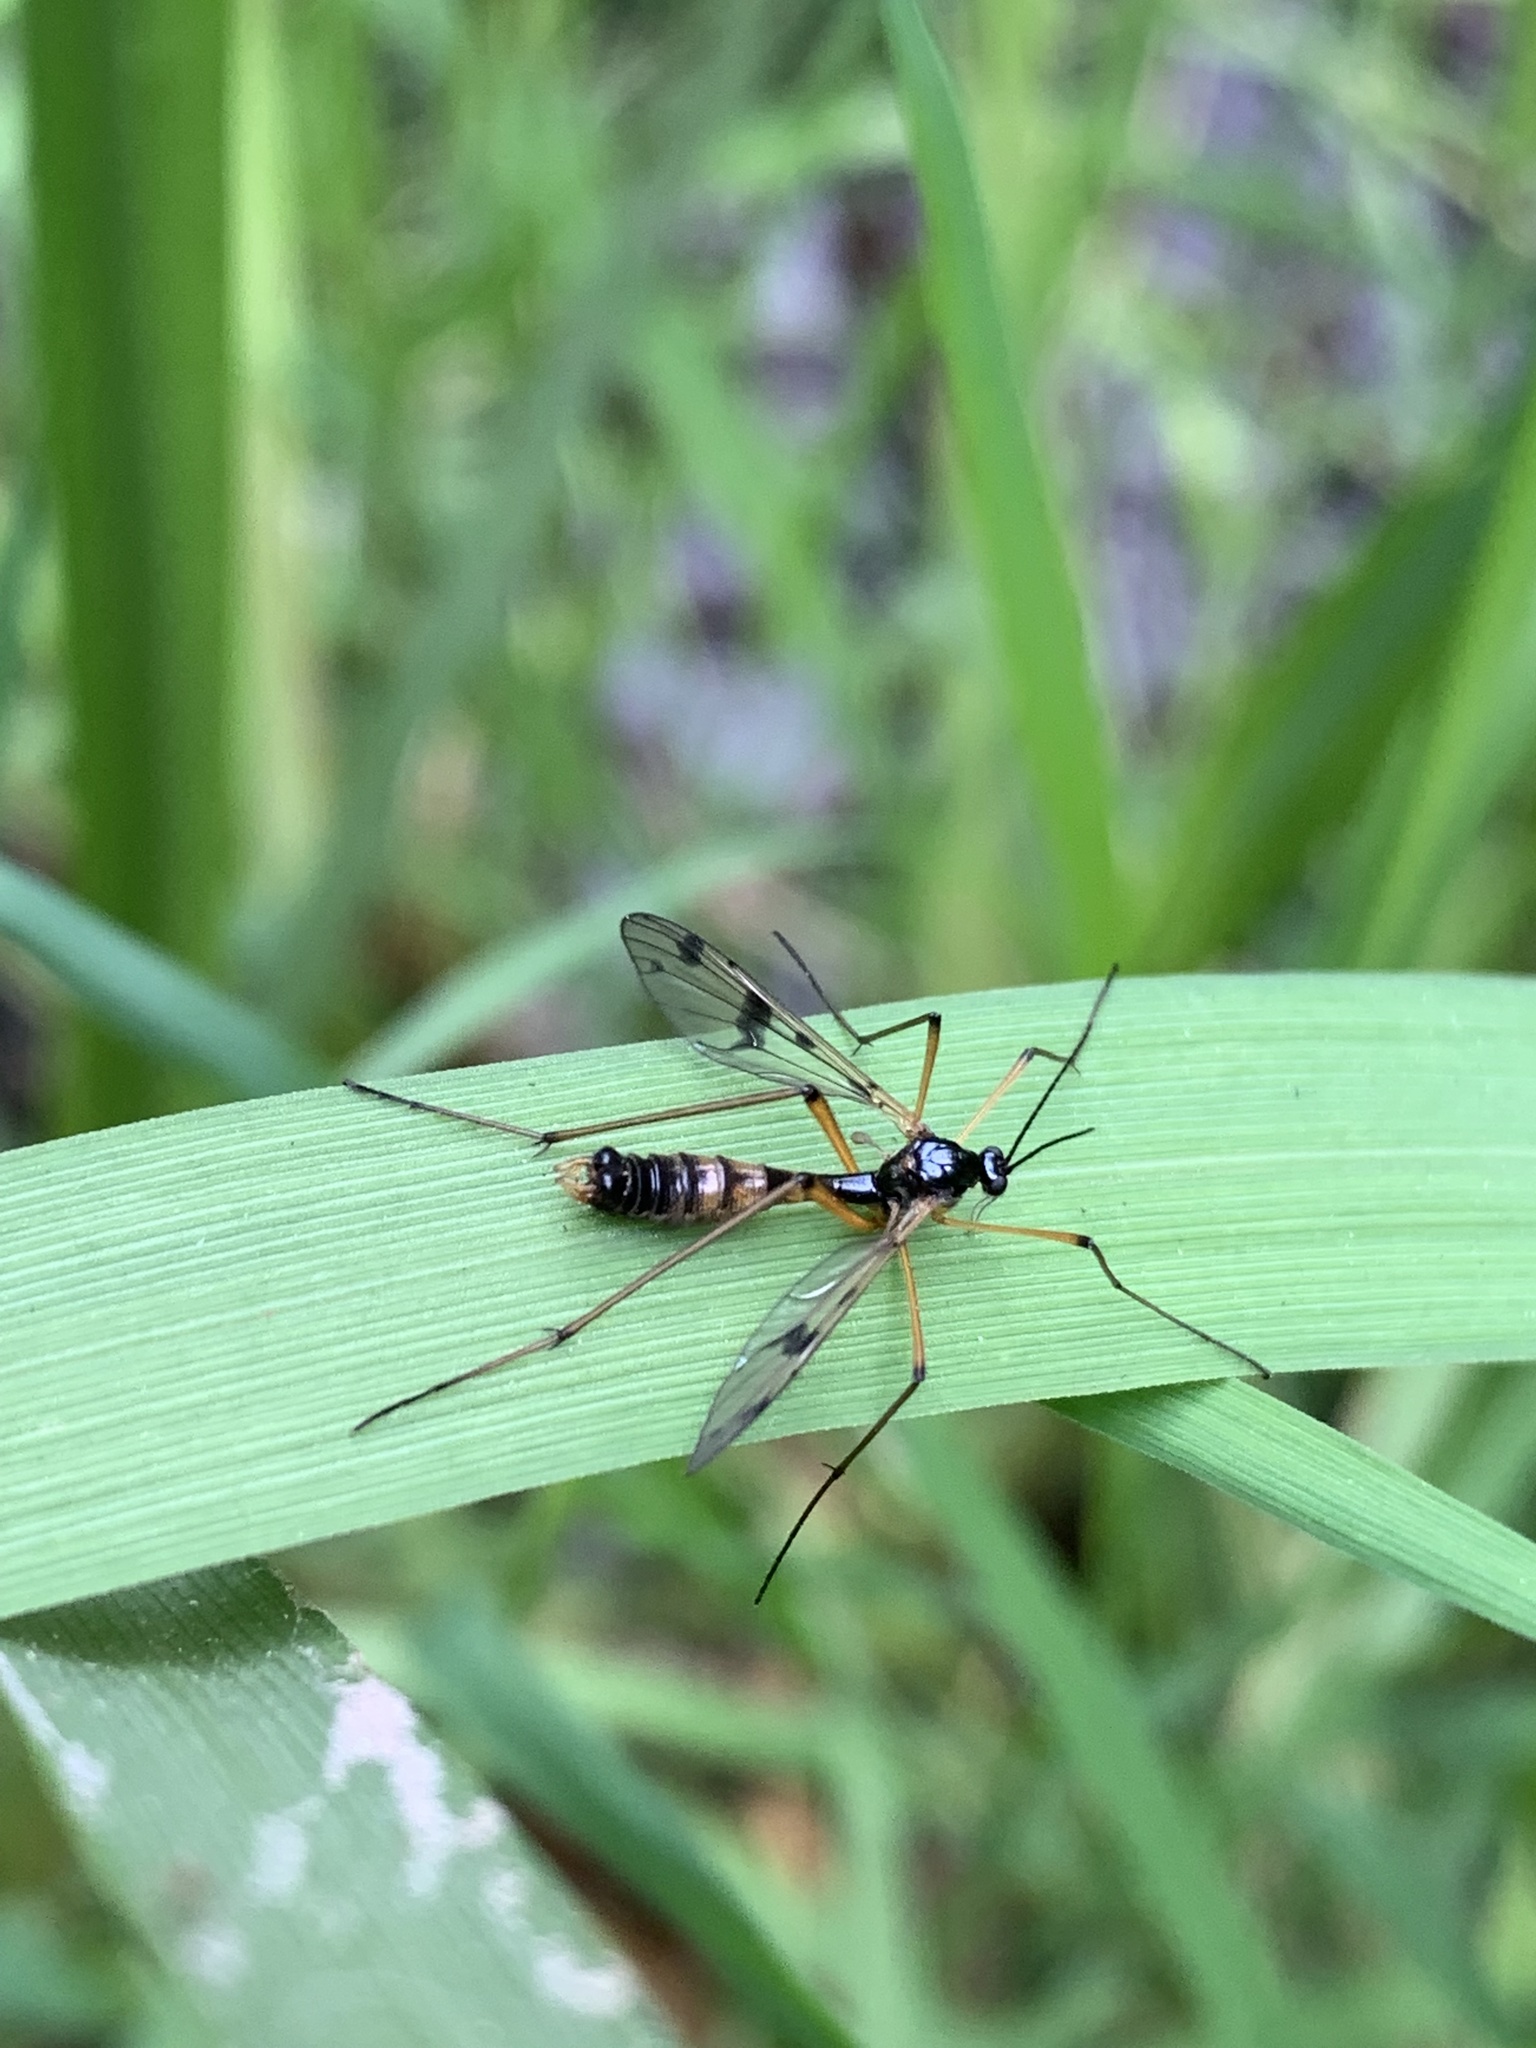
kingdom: Animalia
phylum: Arthropoda
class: Insecta
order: Diptera
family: Ptychopteridae
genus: Ptychoptera
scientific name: Ptychoptera contaminata
